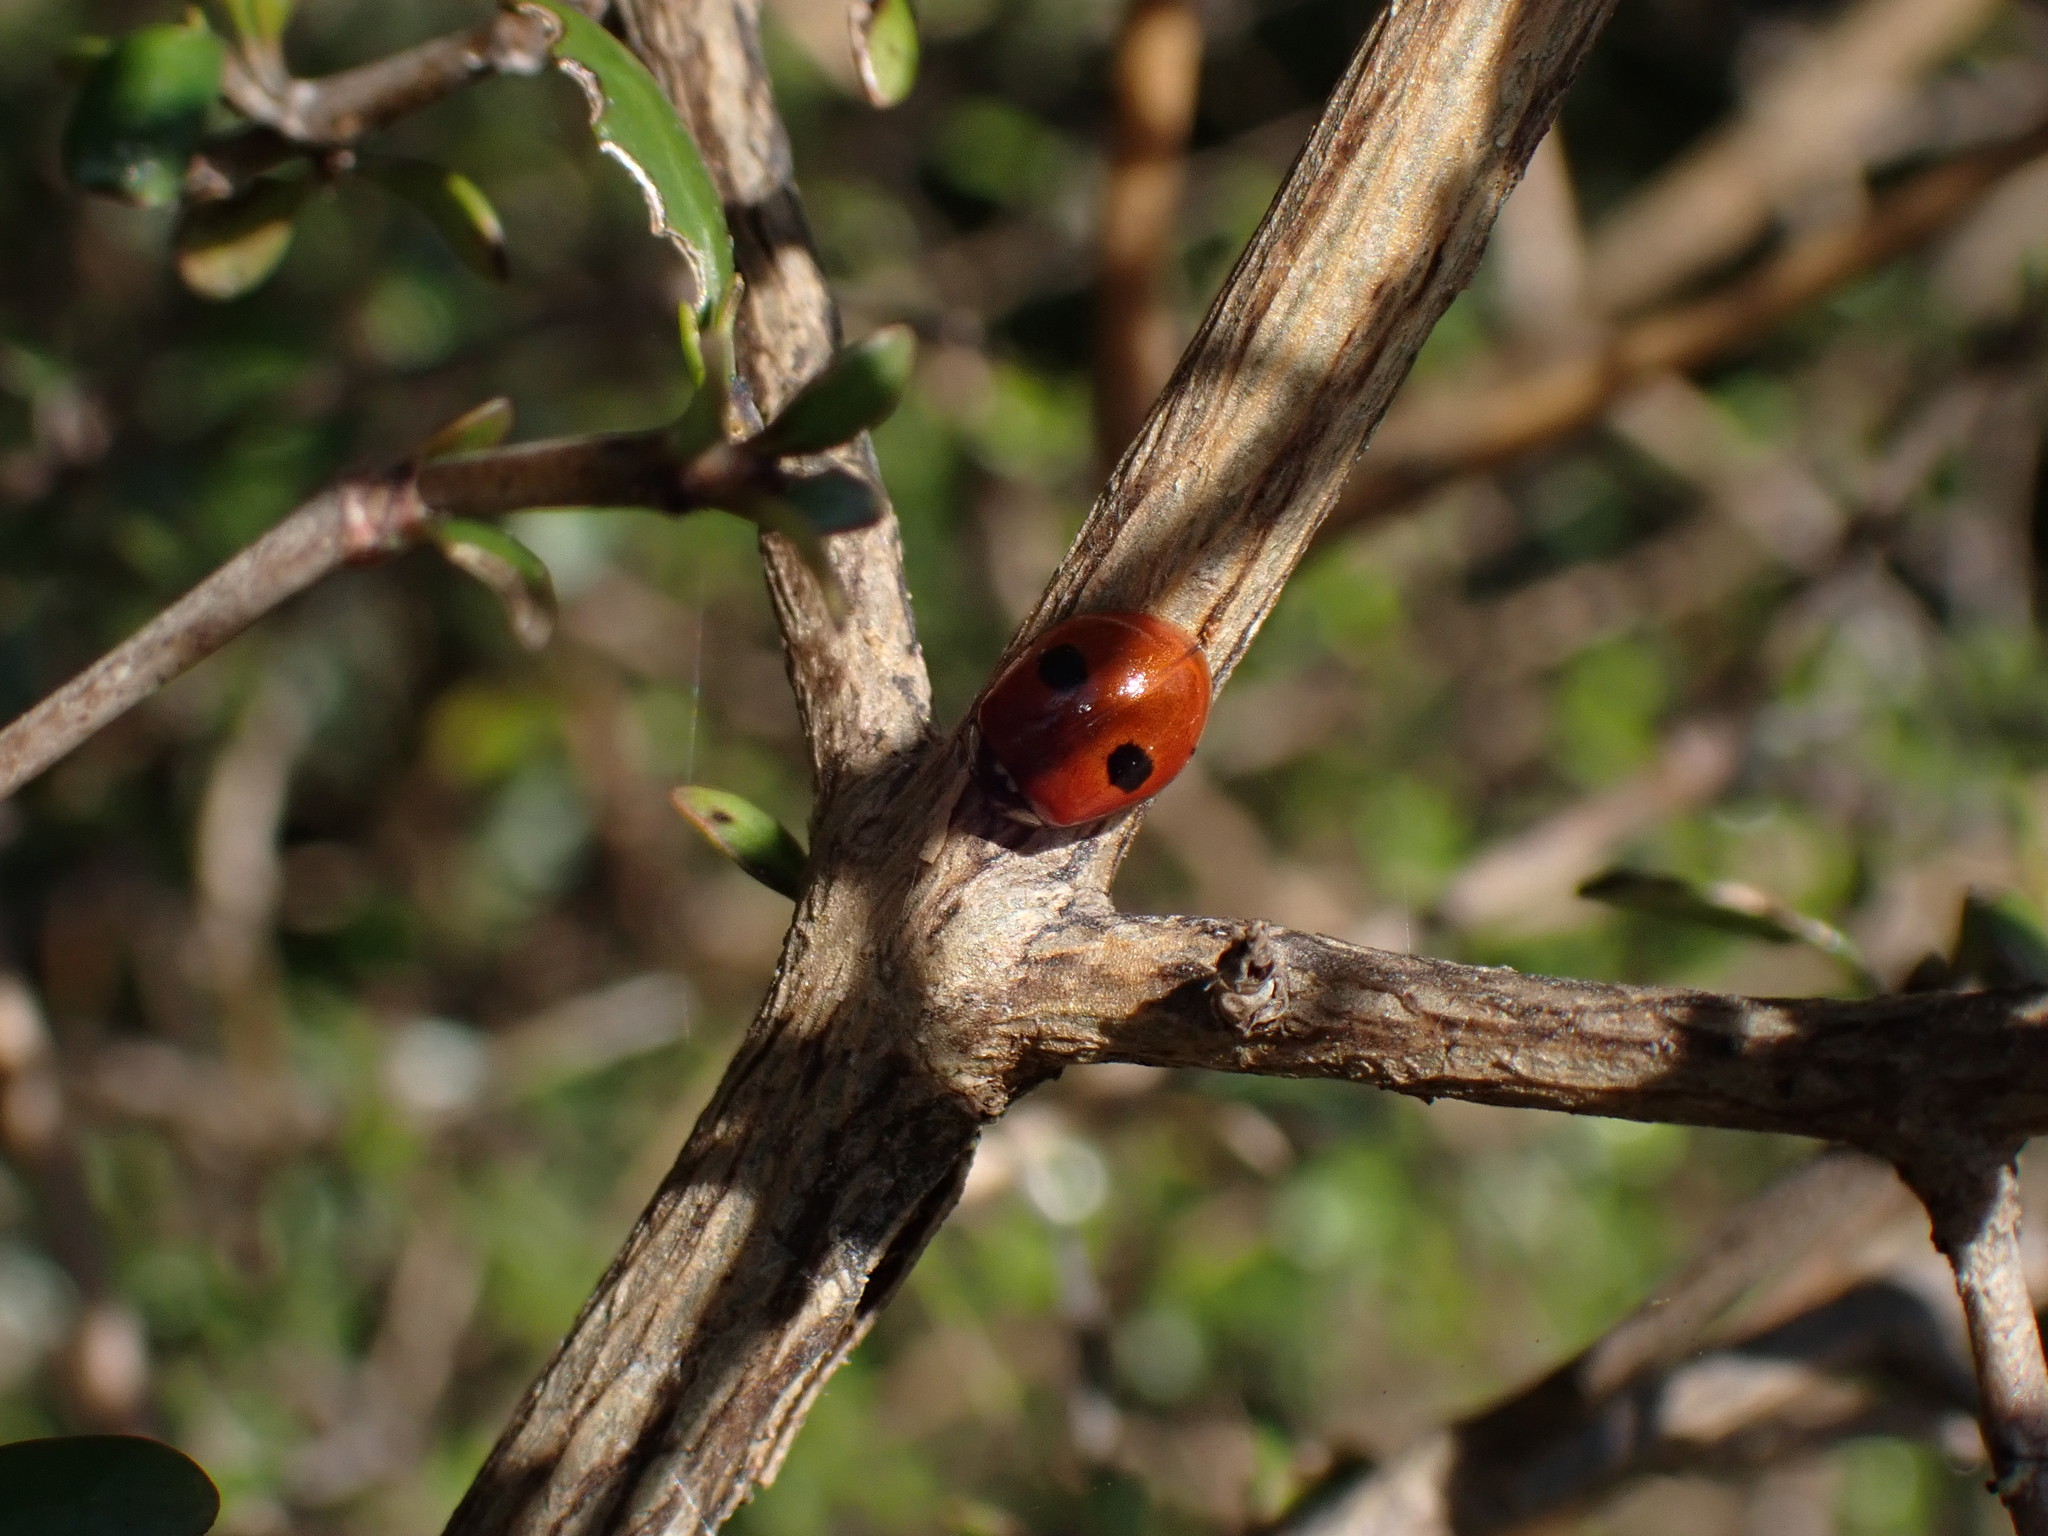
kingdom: Animalia
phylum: Arthropoda
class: Insecta
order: Coleoptera
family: Coccinellidae
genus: Adalia
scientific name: Adalia bipunctata
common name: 2-spot ladybird
